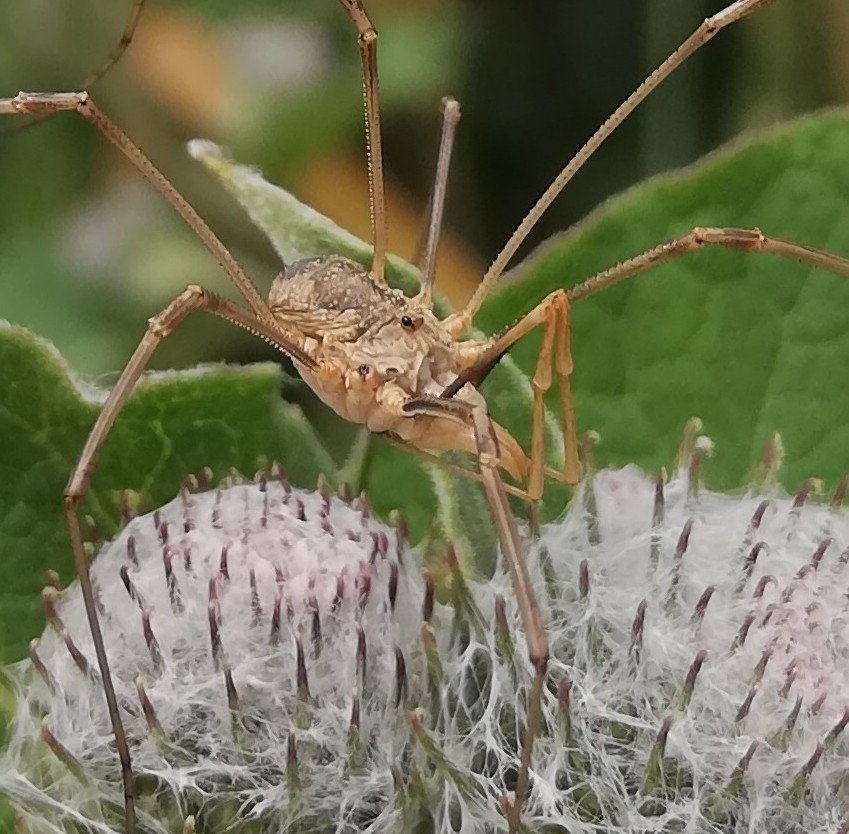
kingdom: Animalia
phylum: Arthropoda
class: Arachnida
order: Opiliones
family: Phalangiidae
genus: Phalangium
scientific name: Phalangium opilio
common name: Daddy longleg
